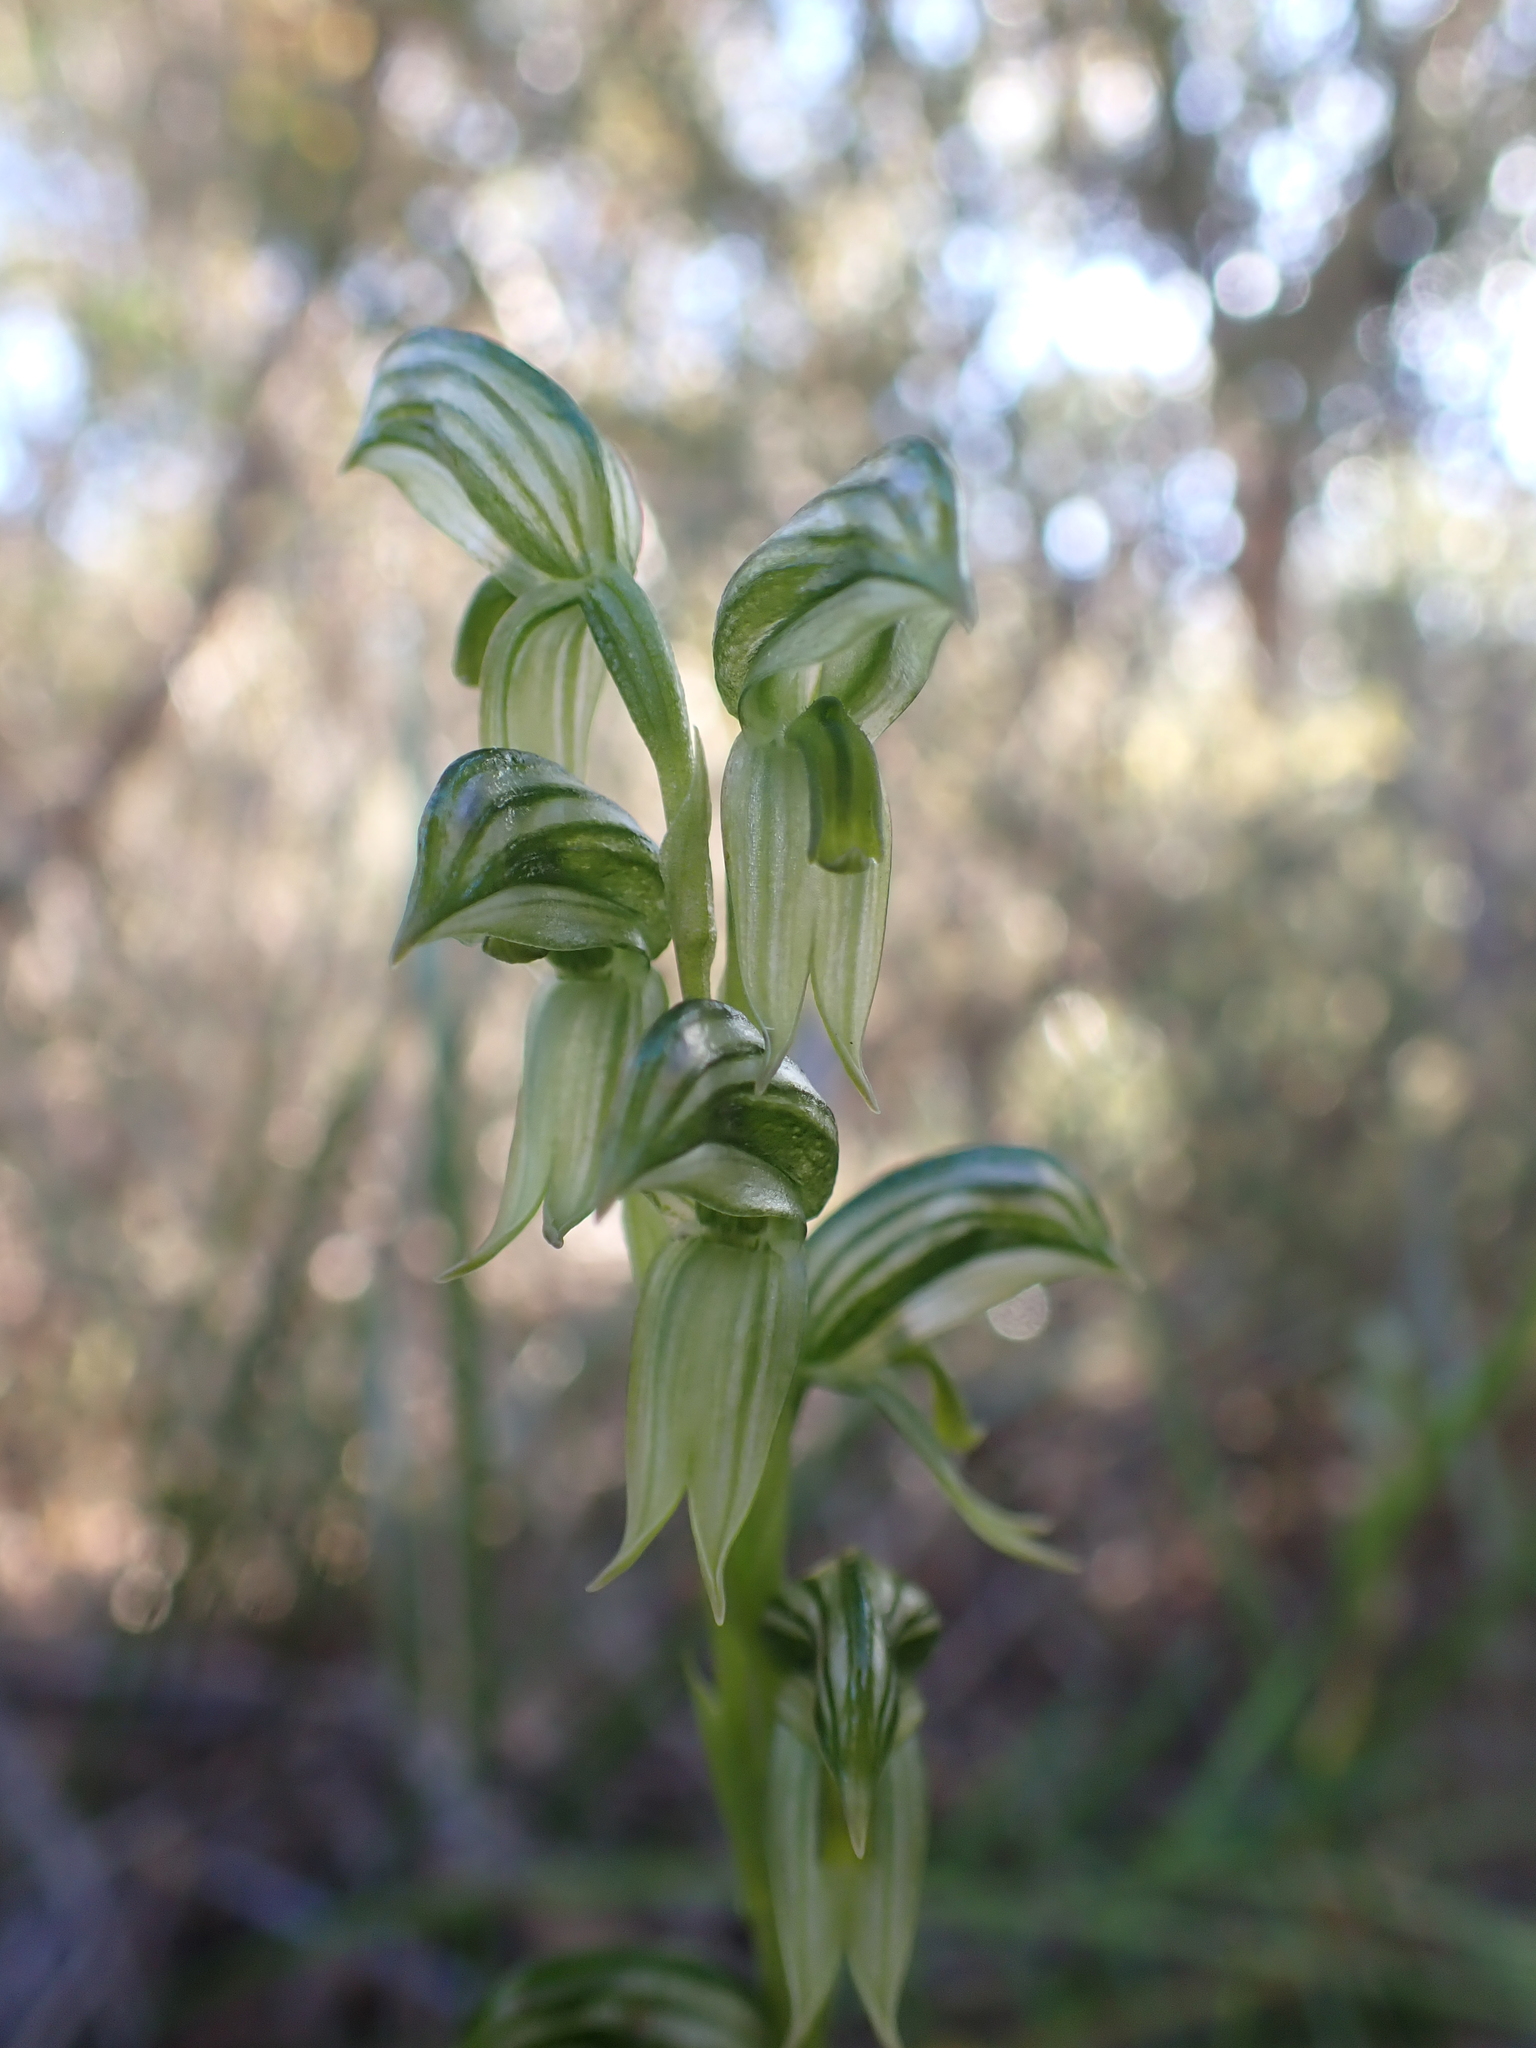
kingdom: Plantae
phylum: Tracheophyta
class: Liliopsida
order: Asparagales
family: Orchidaceae
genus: Pterostylis
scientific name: Pterostylis smaragdyna
